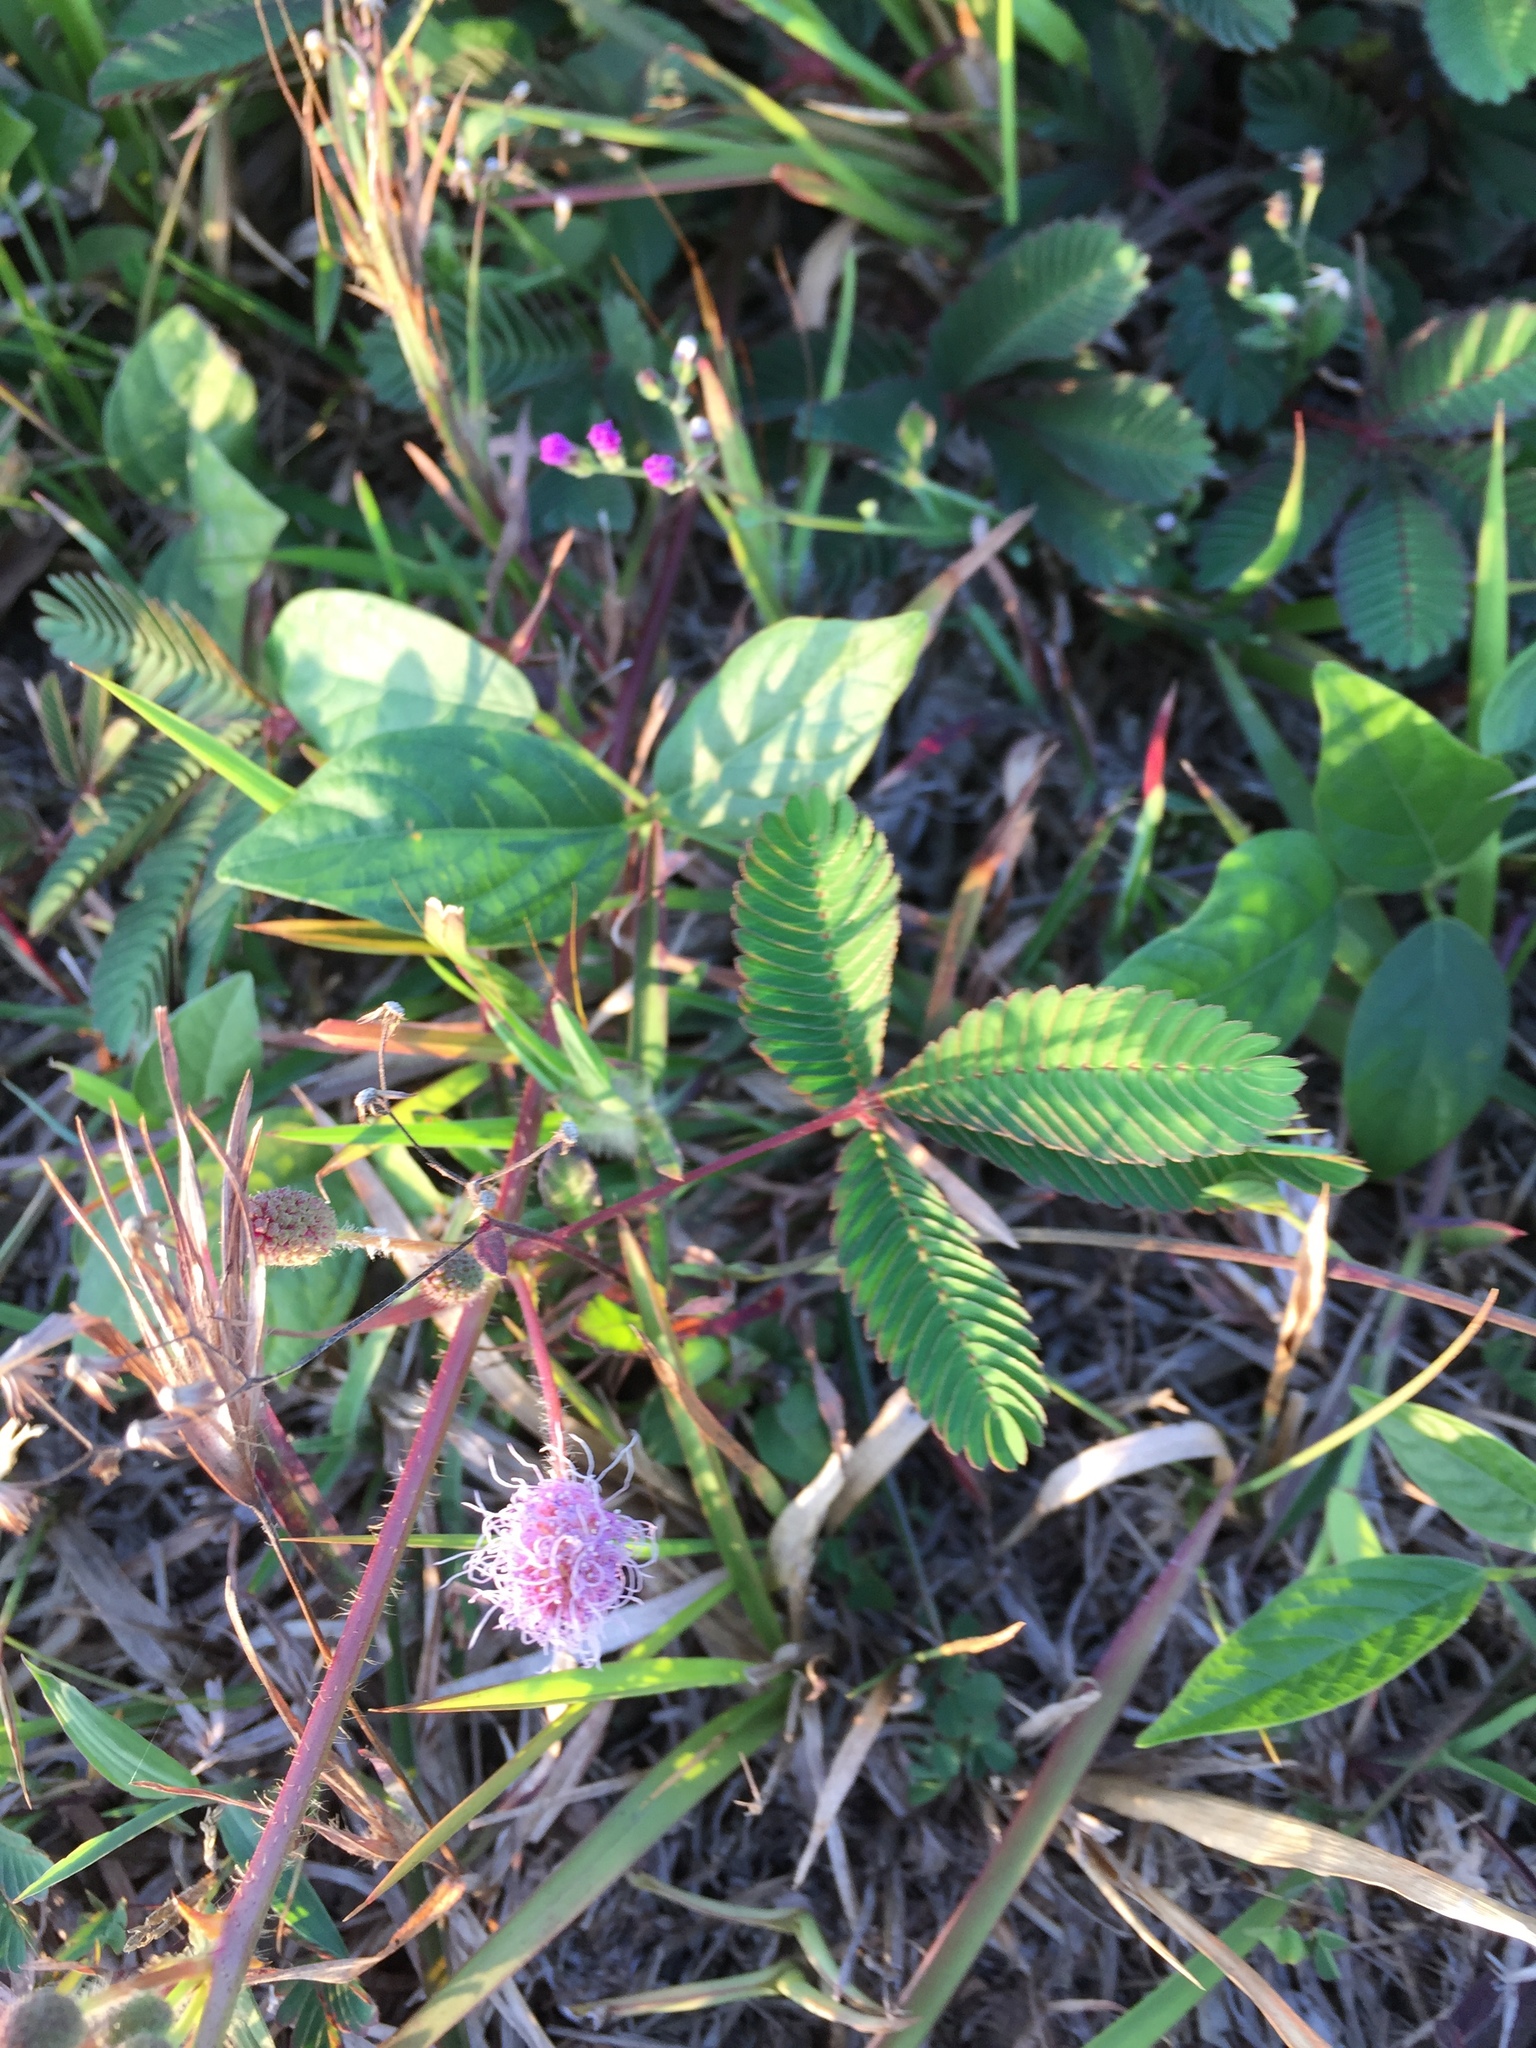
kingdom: Plantae
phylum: Tracheophyta
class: Magnoliopsida
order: Fabales
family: Fabaceae
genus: Mimosa
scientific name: Mimosa pudica
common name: Sensitive plant
